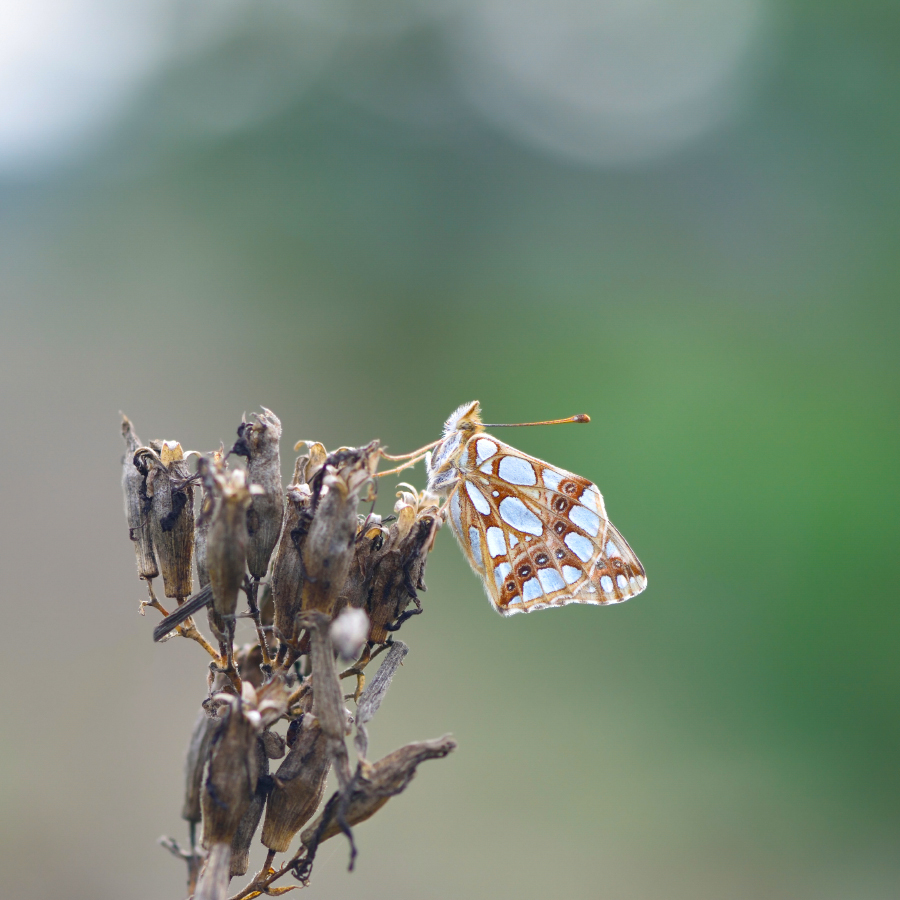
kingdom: Animalia
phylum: Arthropoda
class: Insecta
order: Lepidoptera
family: Nymphalidae
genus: Issoria
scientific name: Issoria lathonia
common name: Queen of spain fritillary
